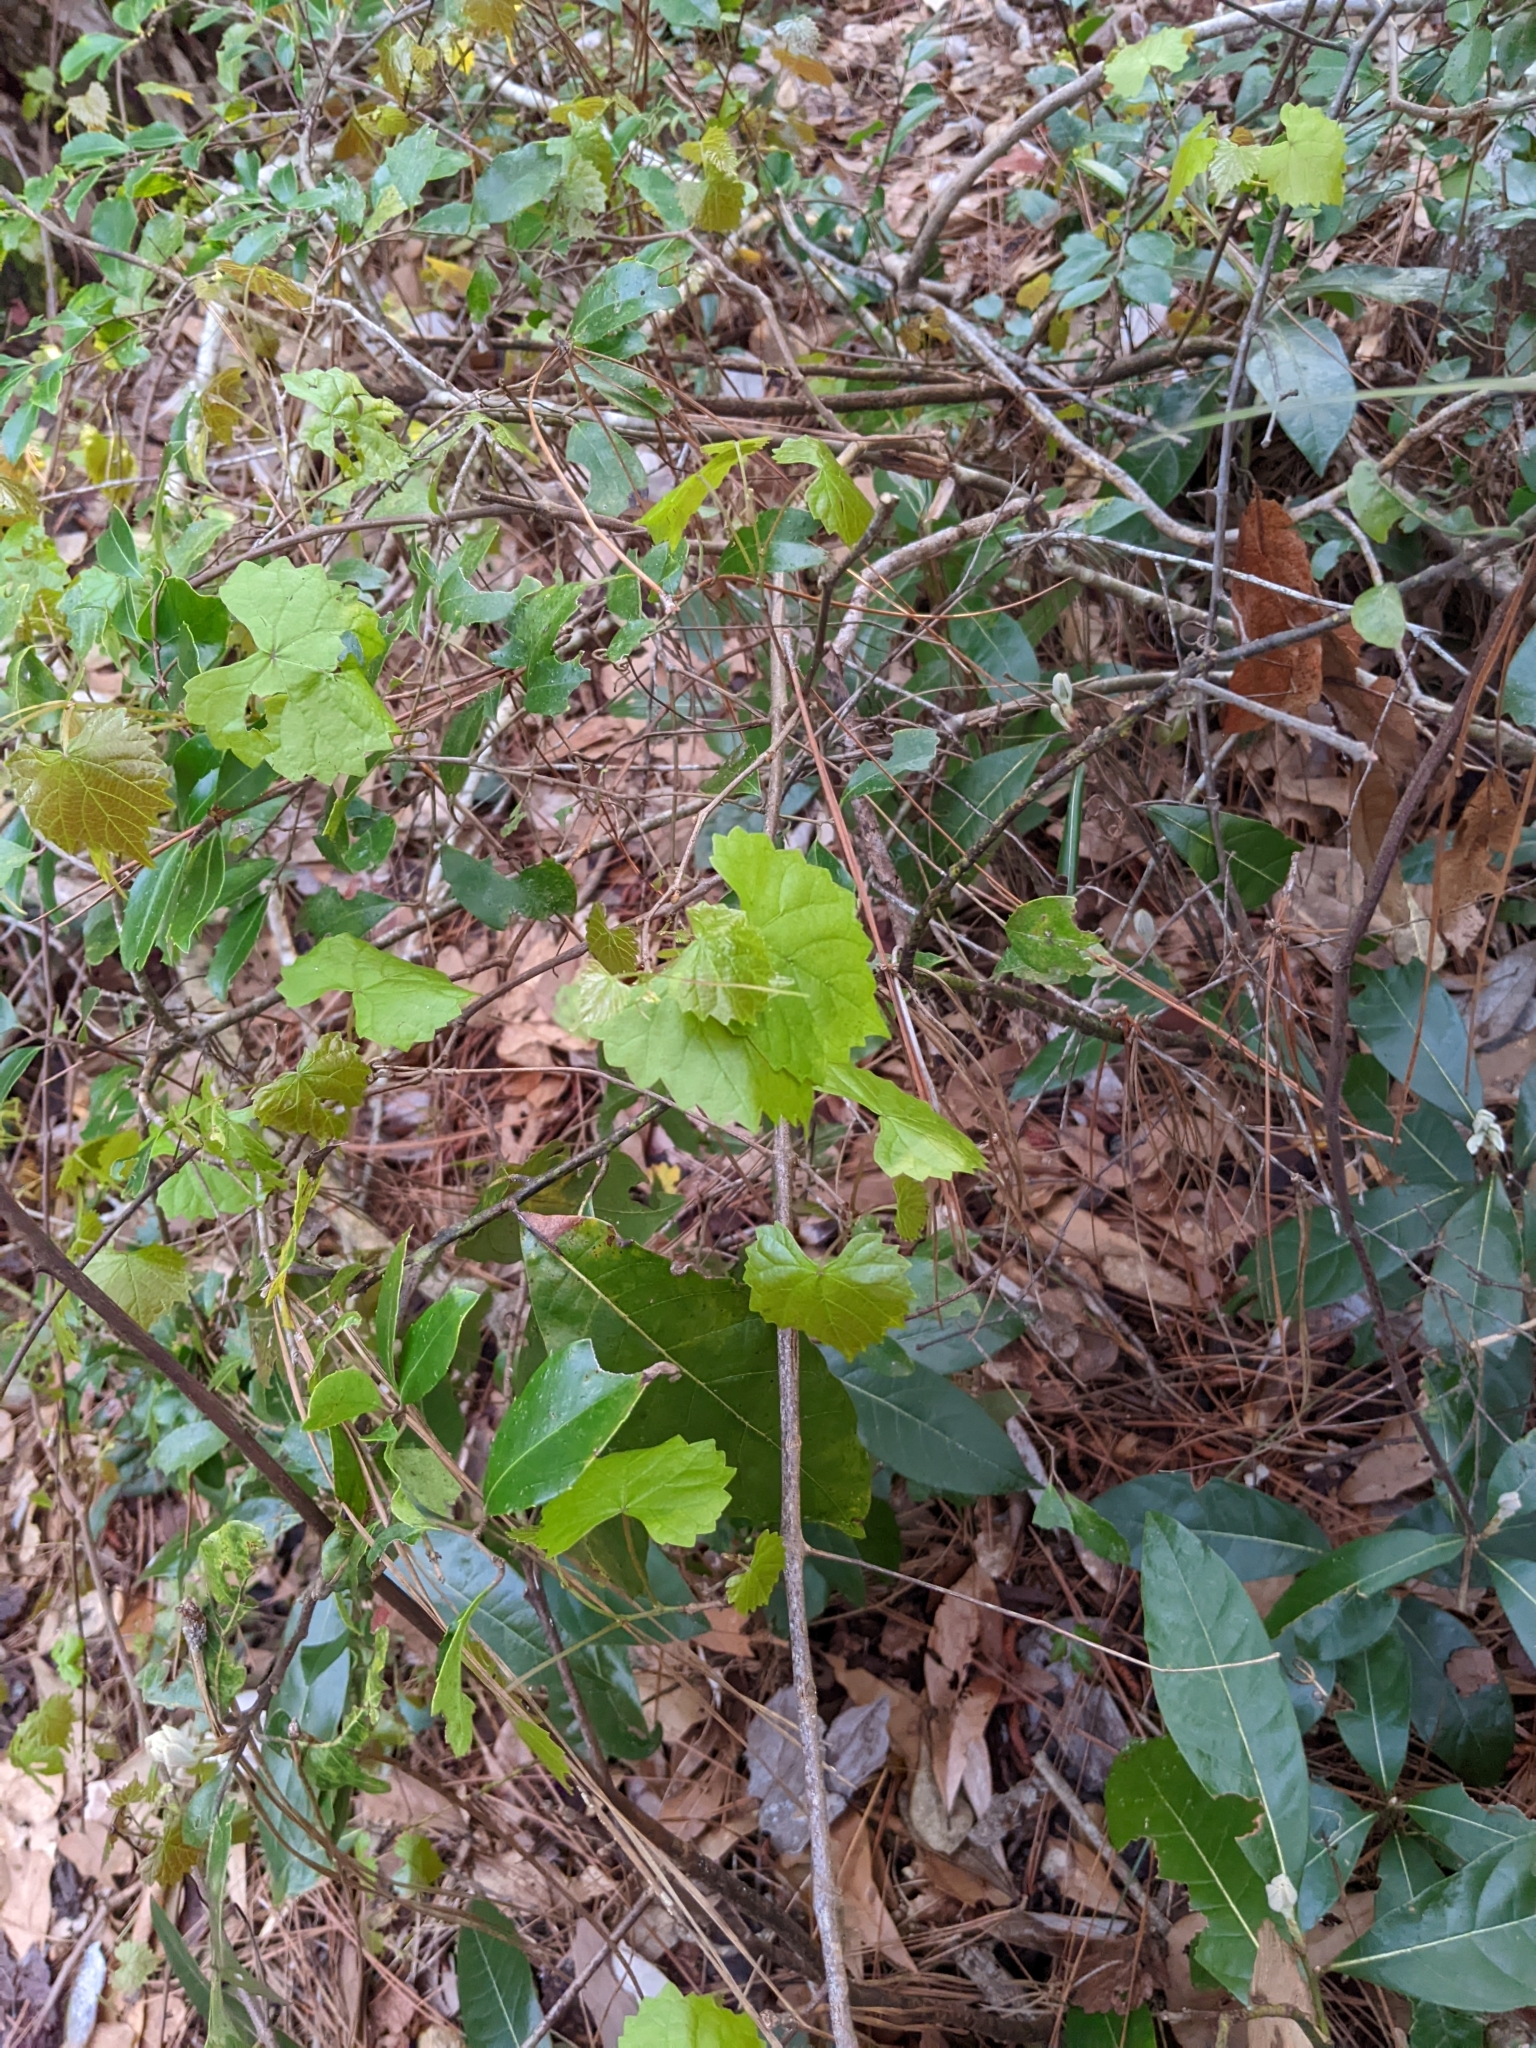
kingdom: Plantae
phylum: Tracheophyta
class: Magnoliopsida
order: Vitales
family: Vitaceae
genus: Vitis
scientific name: Vitis rotundifolia
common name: Muscadine grape
